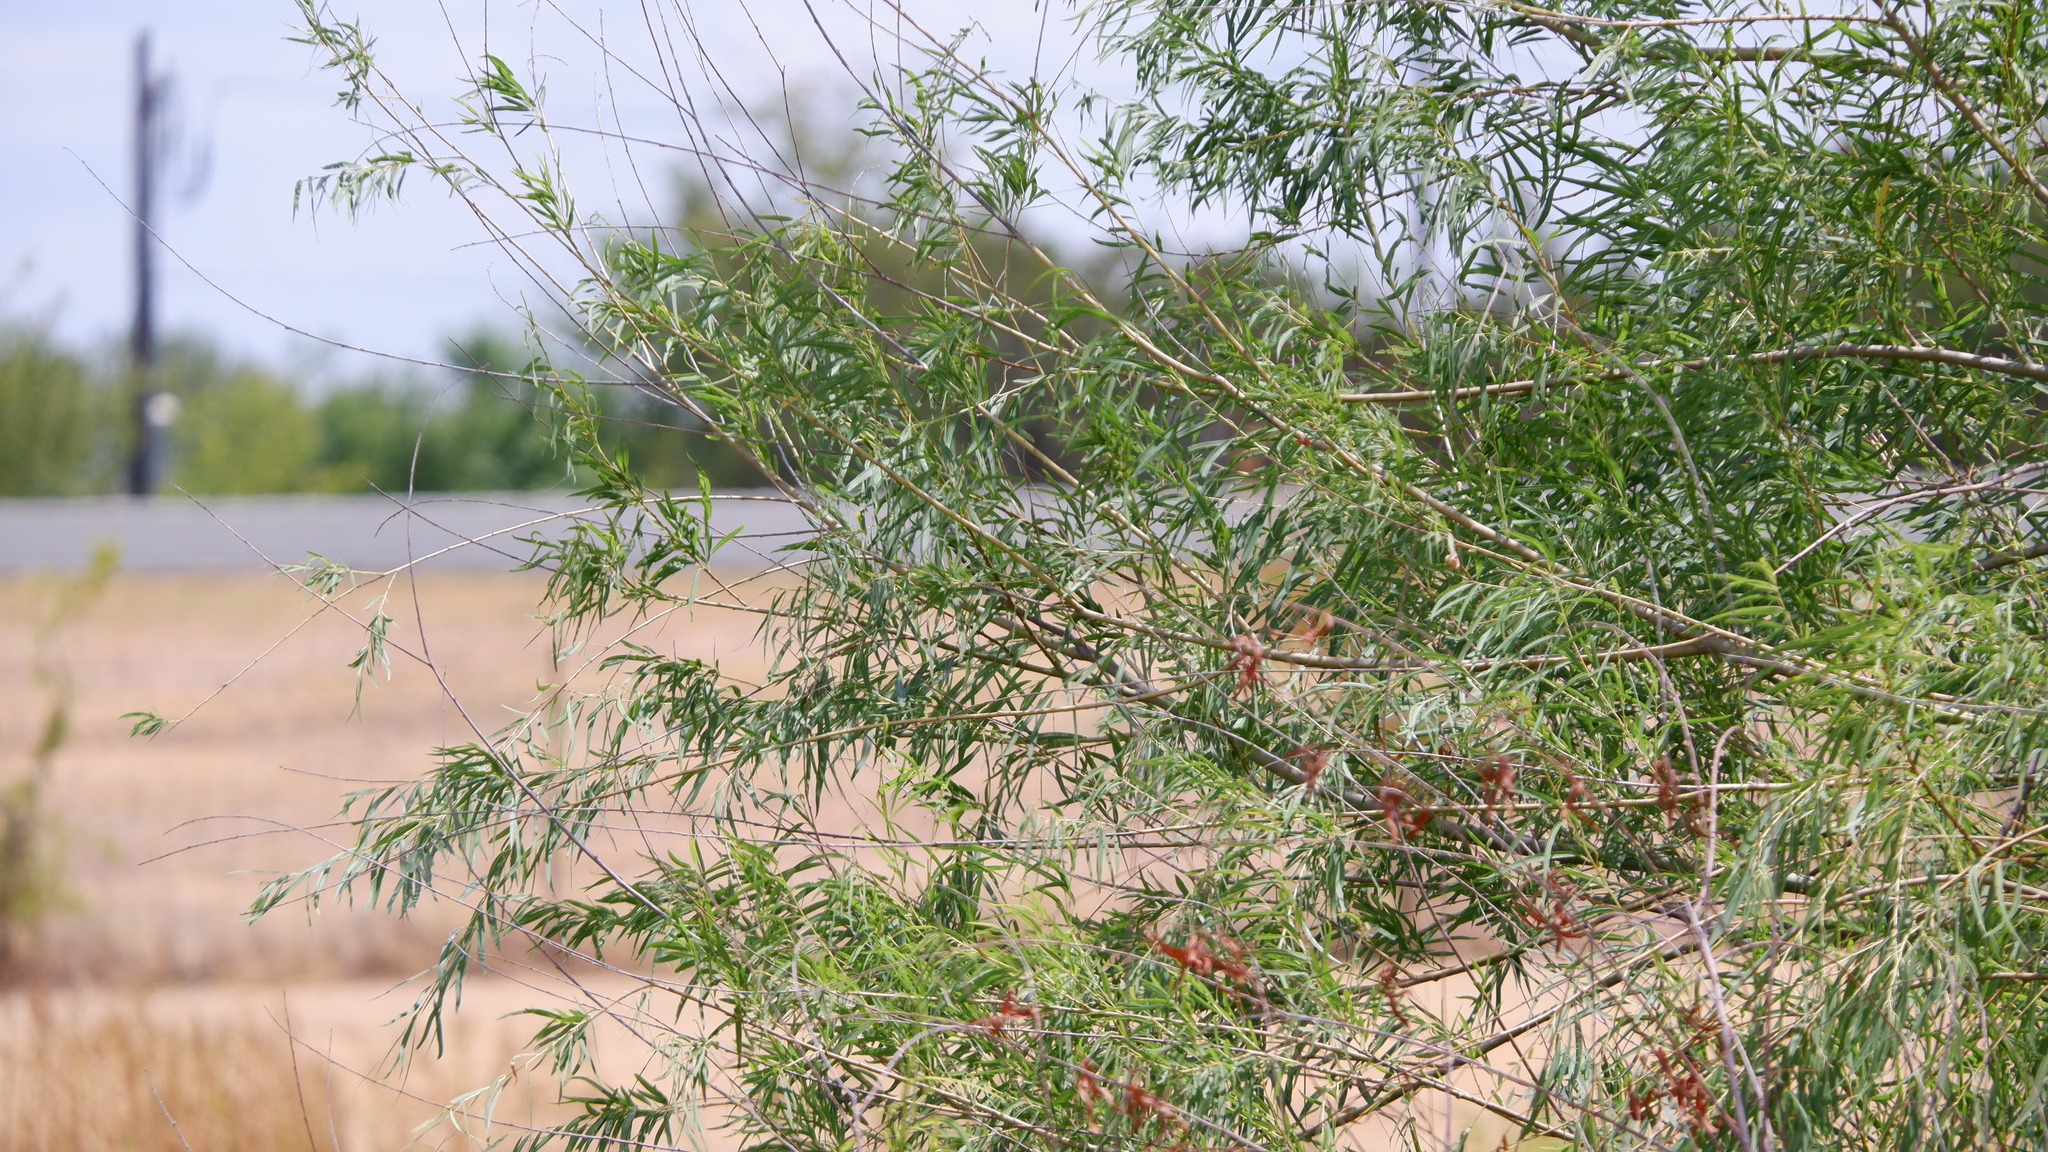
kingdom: Plantae
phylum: Tracheophyta
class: Magnoliopsida
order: Malpighiales
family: Salicaceae
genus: Salix
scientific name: Salix nigra
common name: Black willow
